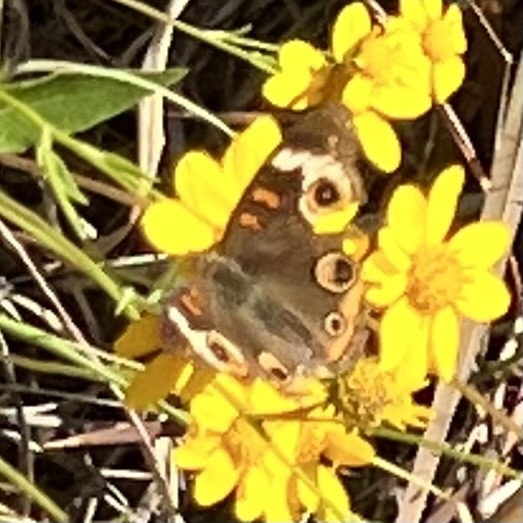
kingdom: Animalia
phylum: Arthropoda
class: Insecta
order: Lepidoptera
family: Nymphalidae
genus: Junonia
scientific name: Junonia coenia
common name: Common buckeye
